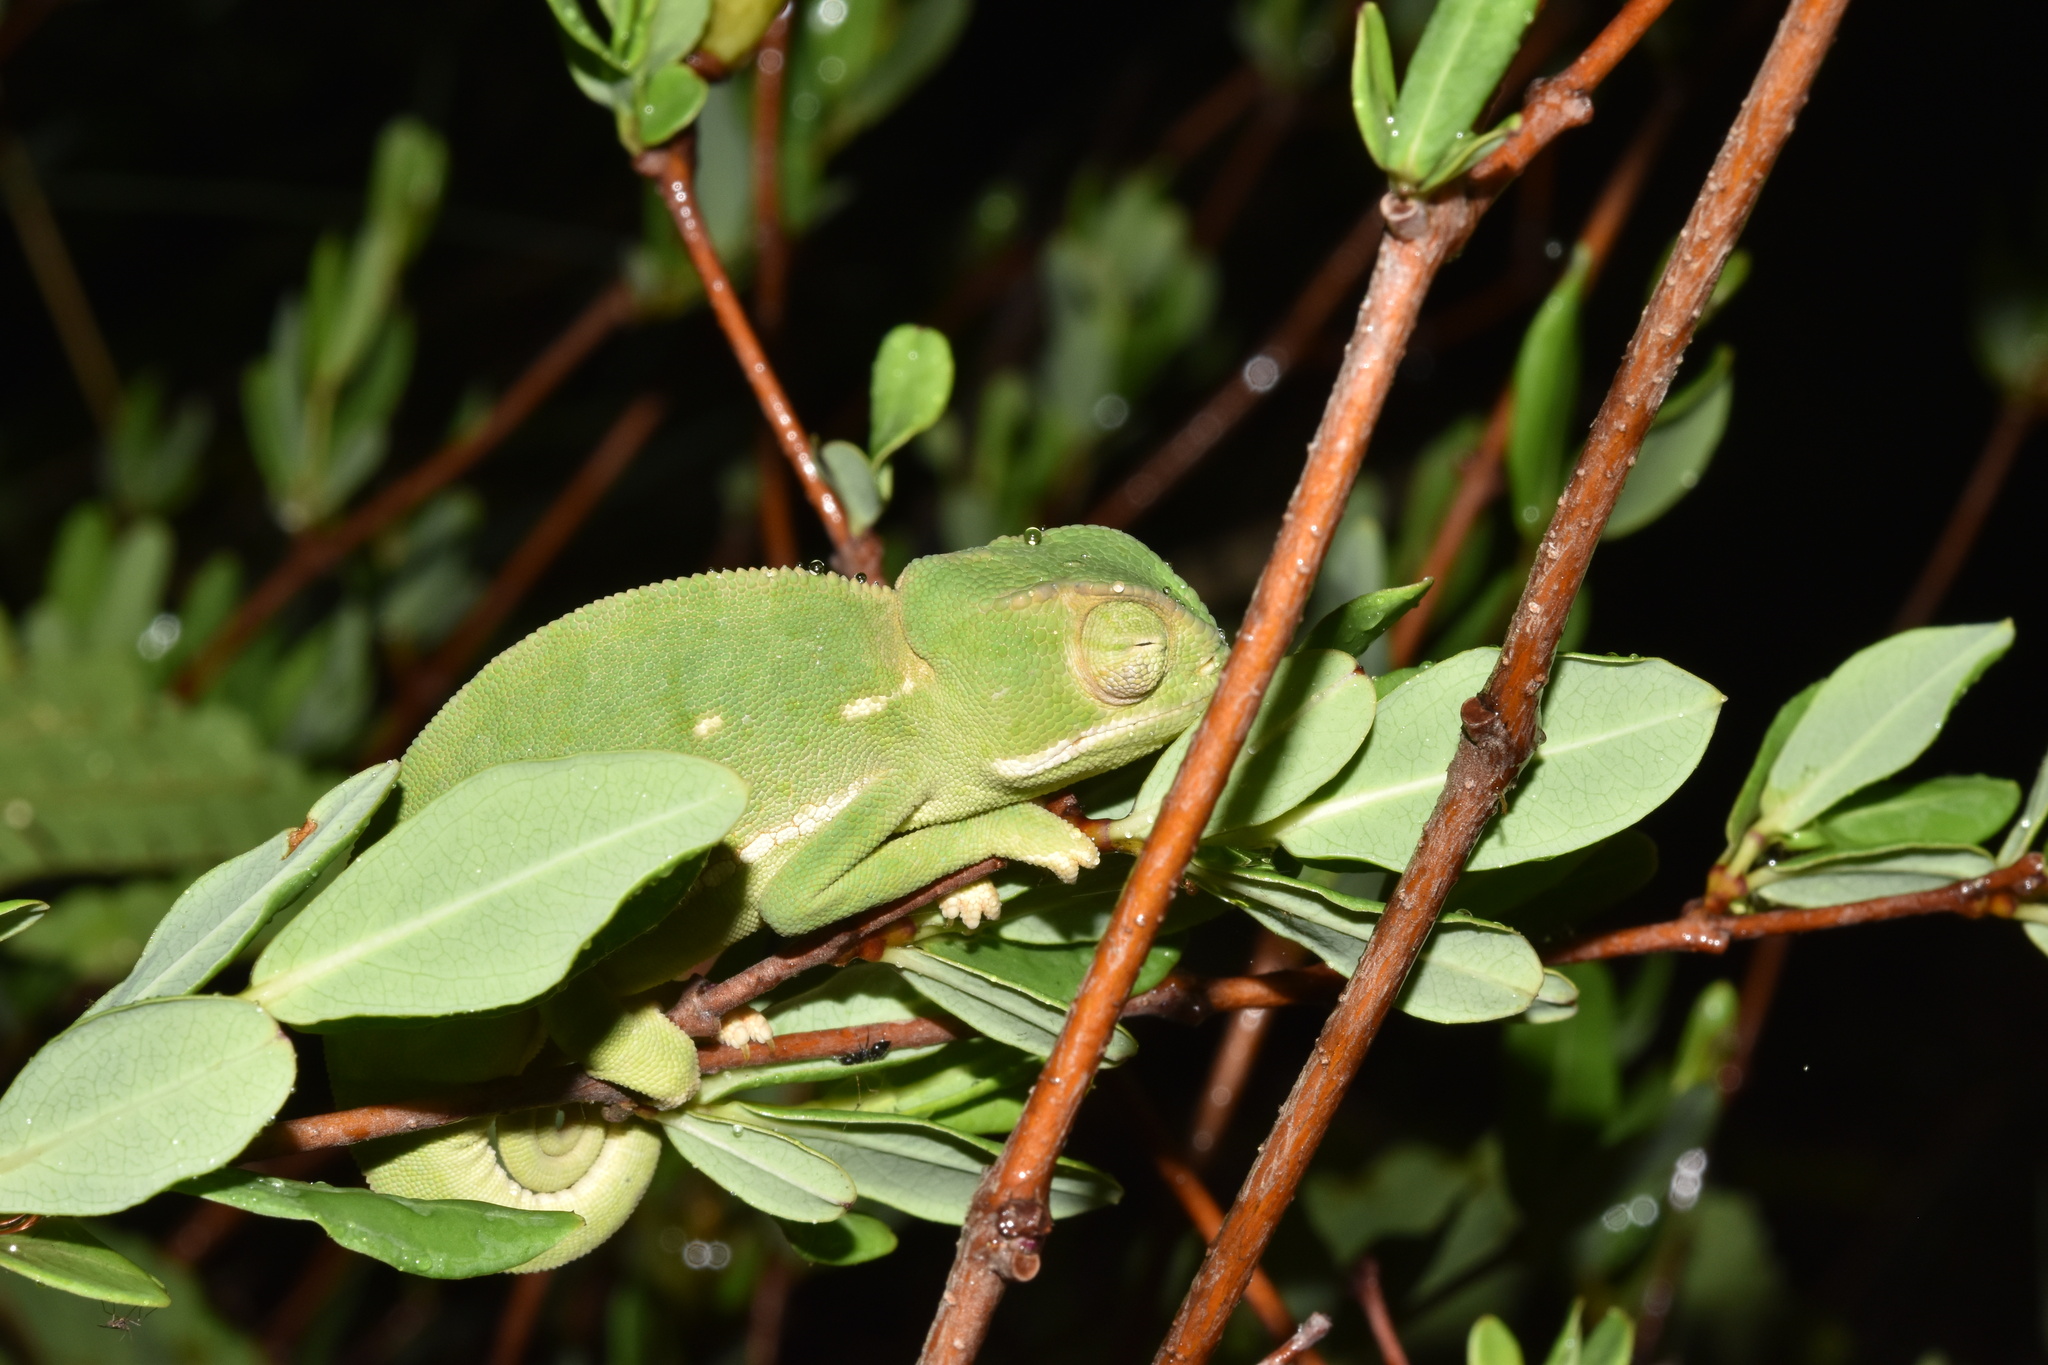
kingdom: Animalia
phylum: Chordata
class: Squamata
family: Chamaeleonidae
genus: Chamaeleo
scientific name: Chamaeleo dilepis
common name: Flapneck chameleon
